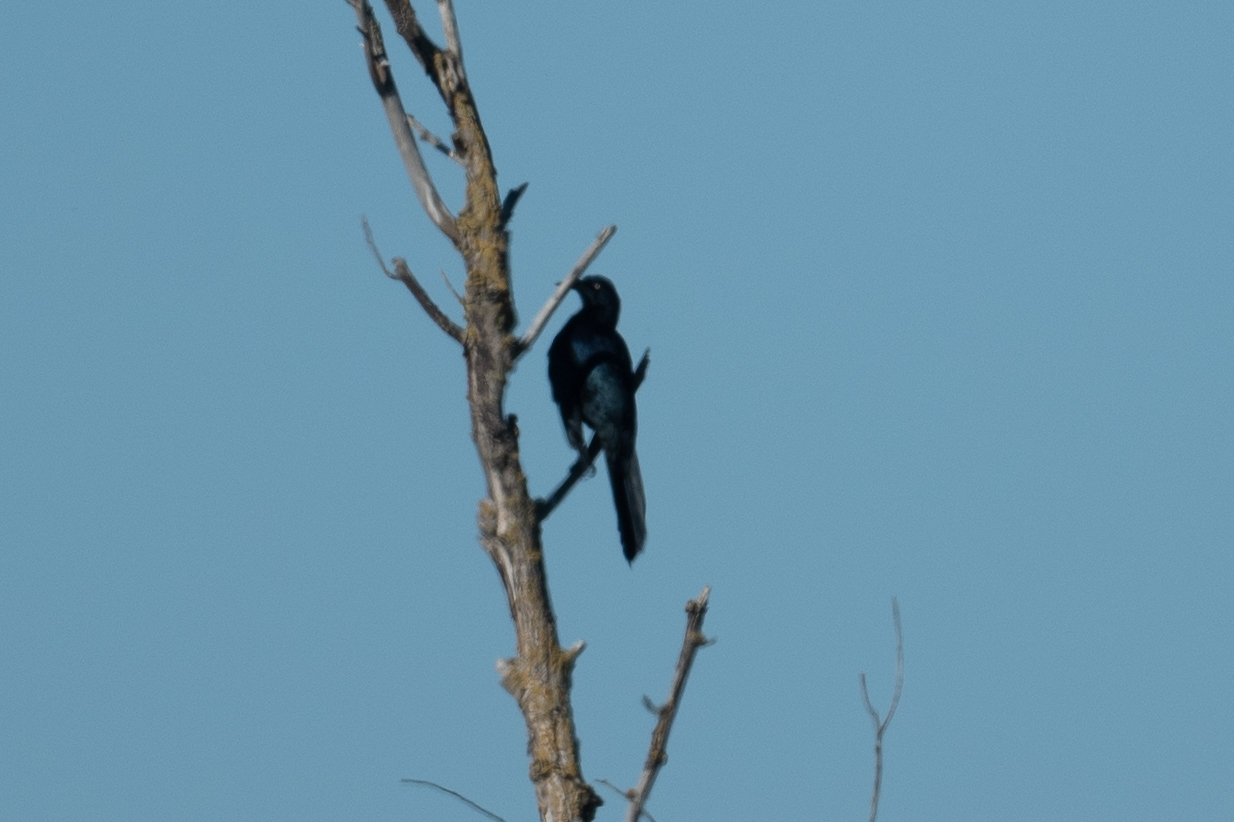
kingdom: Animalia
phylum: Chordata
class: Aves
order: Passeriformes
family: Icteridae
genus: Quiscalus
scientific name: Quiscalus mexicanus
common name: Great-tailed grackle
